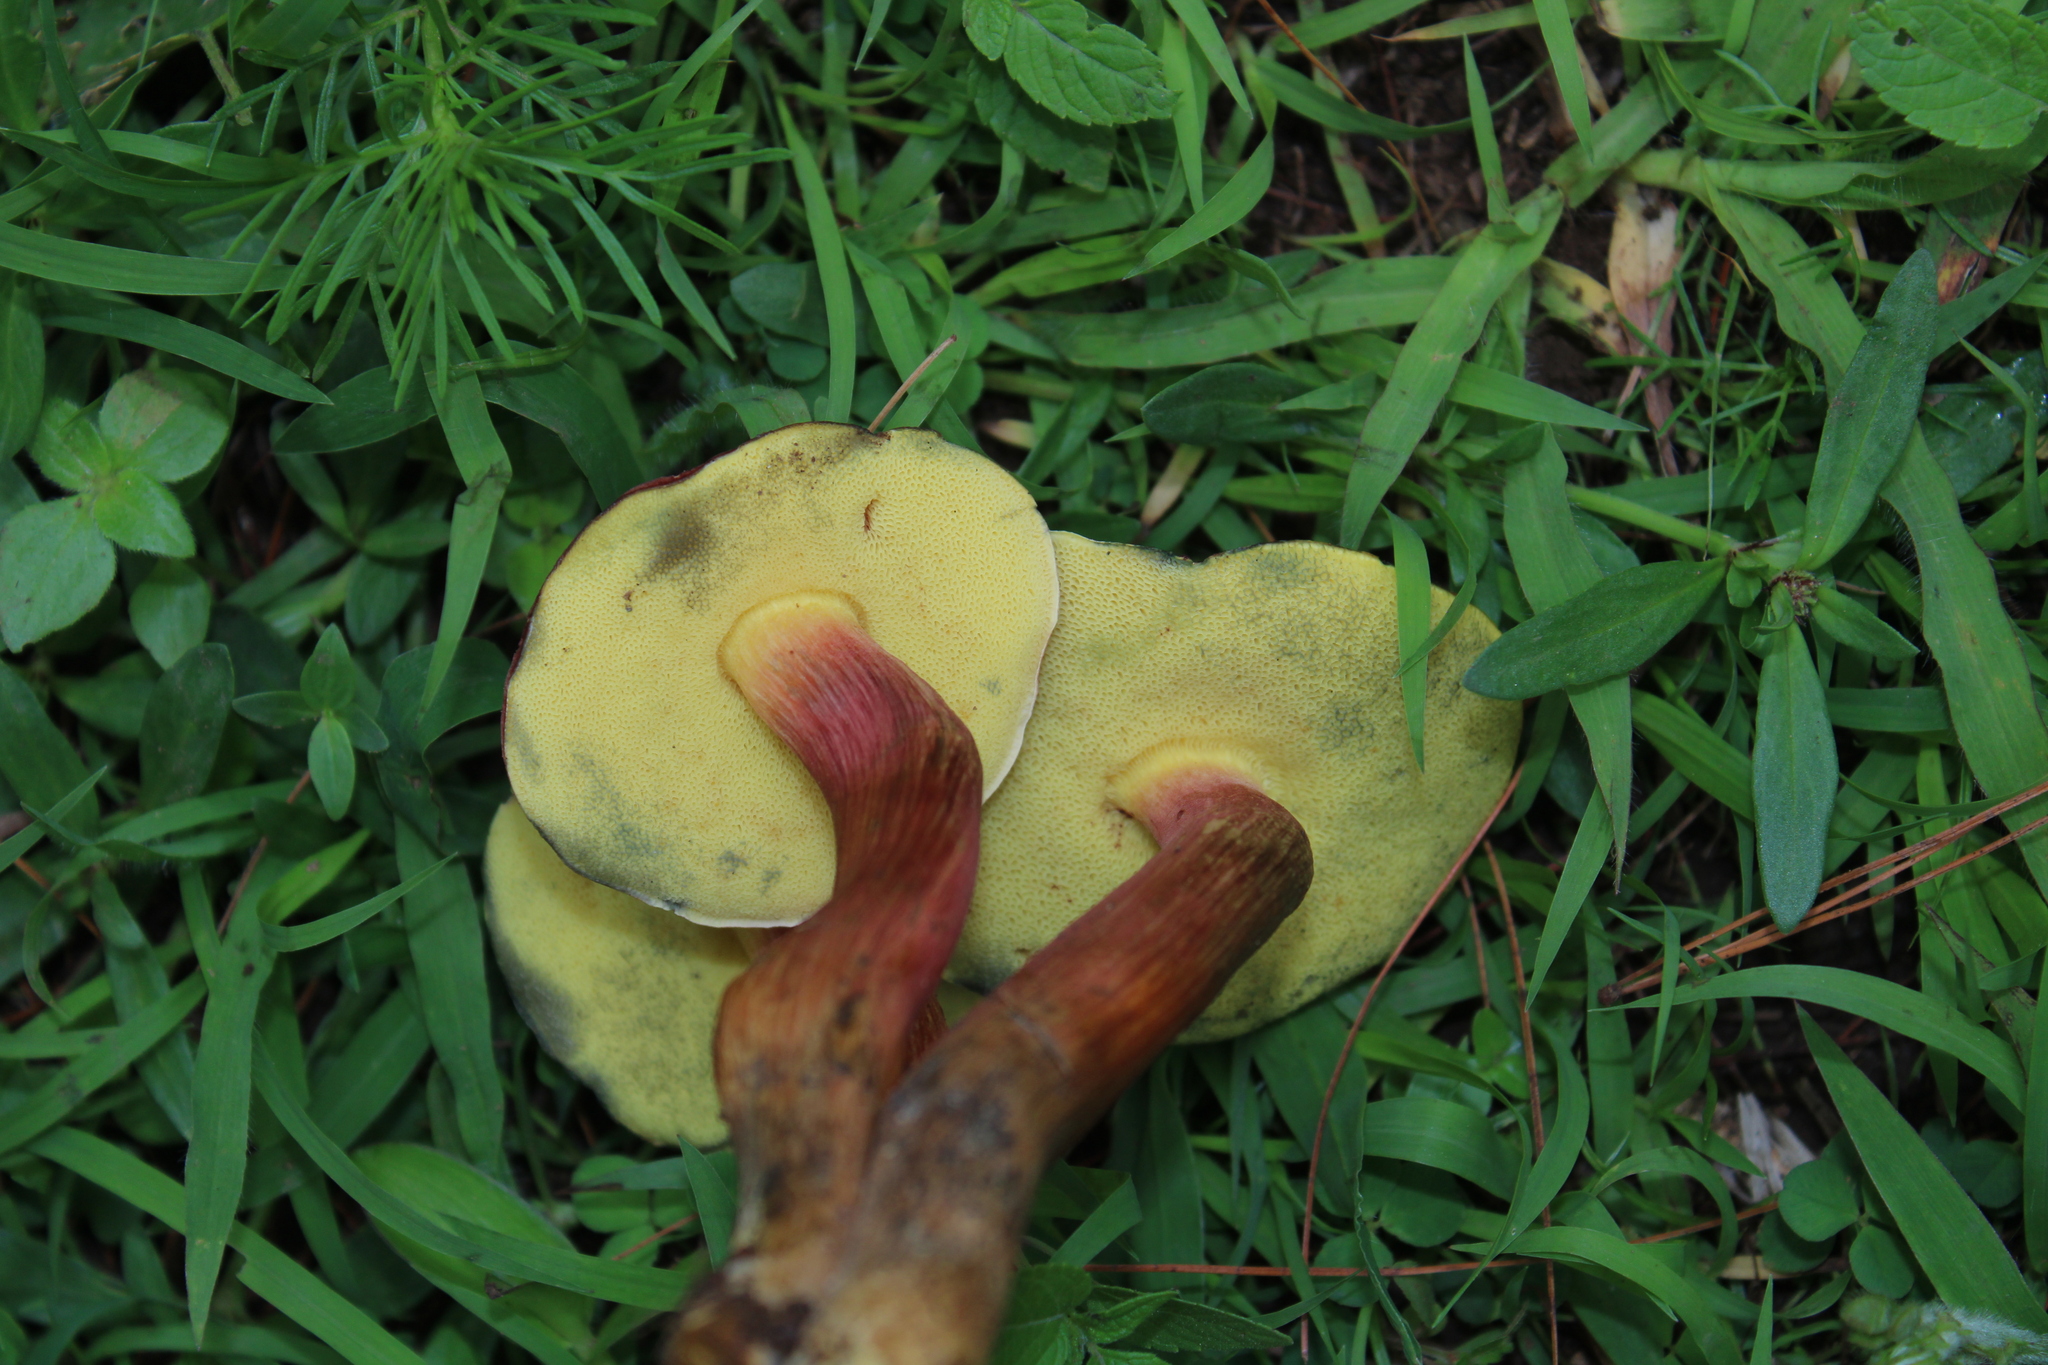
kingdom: Fungi
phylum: Basidiomycota
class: Agaricomycetes
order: Boletales
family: Boletaceae
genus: Xerocomellus
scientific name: Xerocomellus dryophilus
